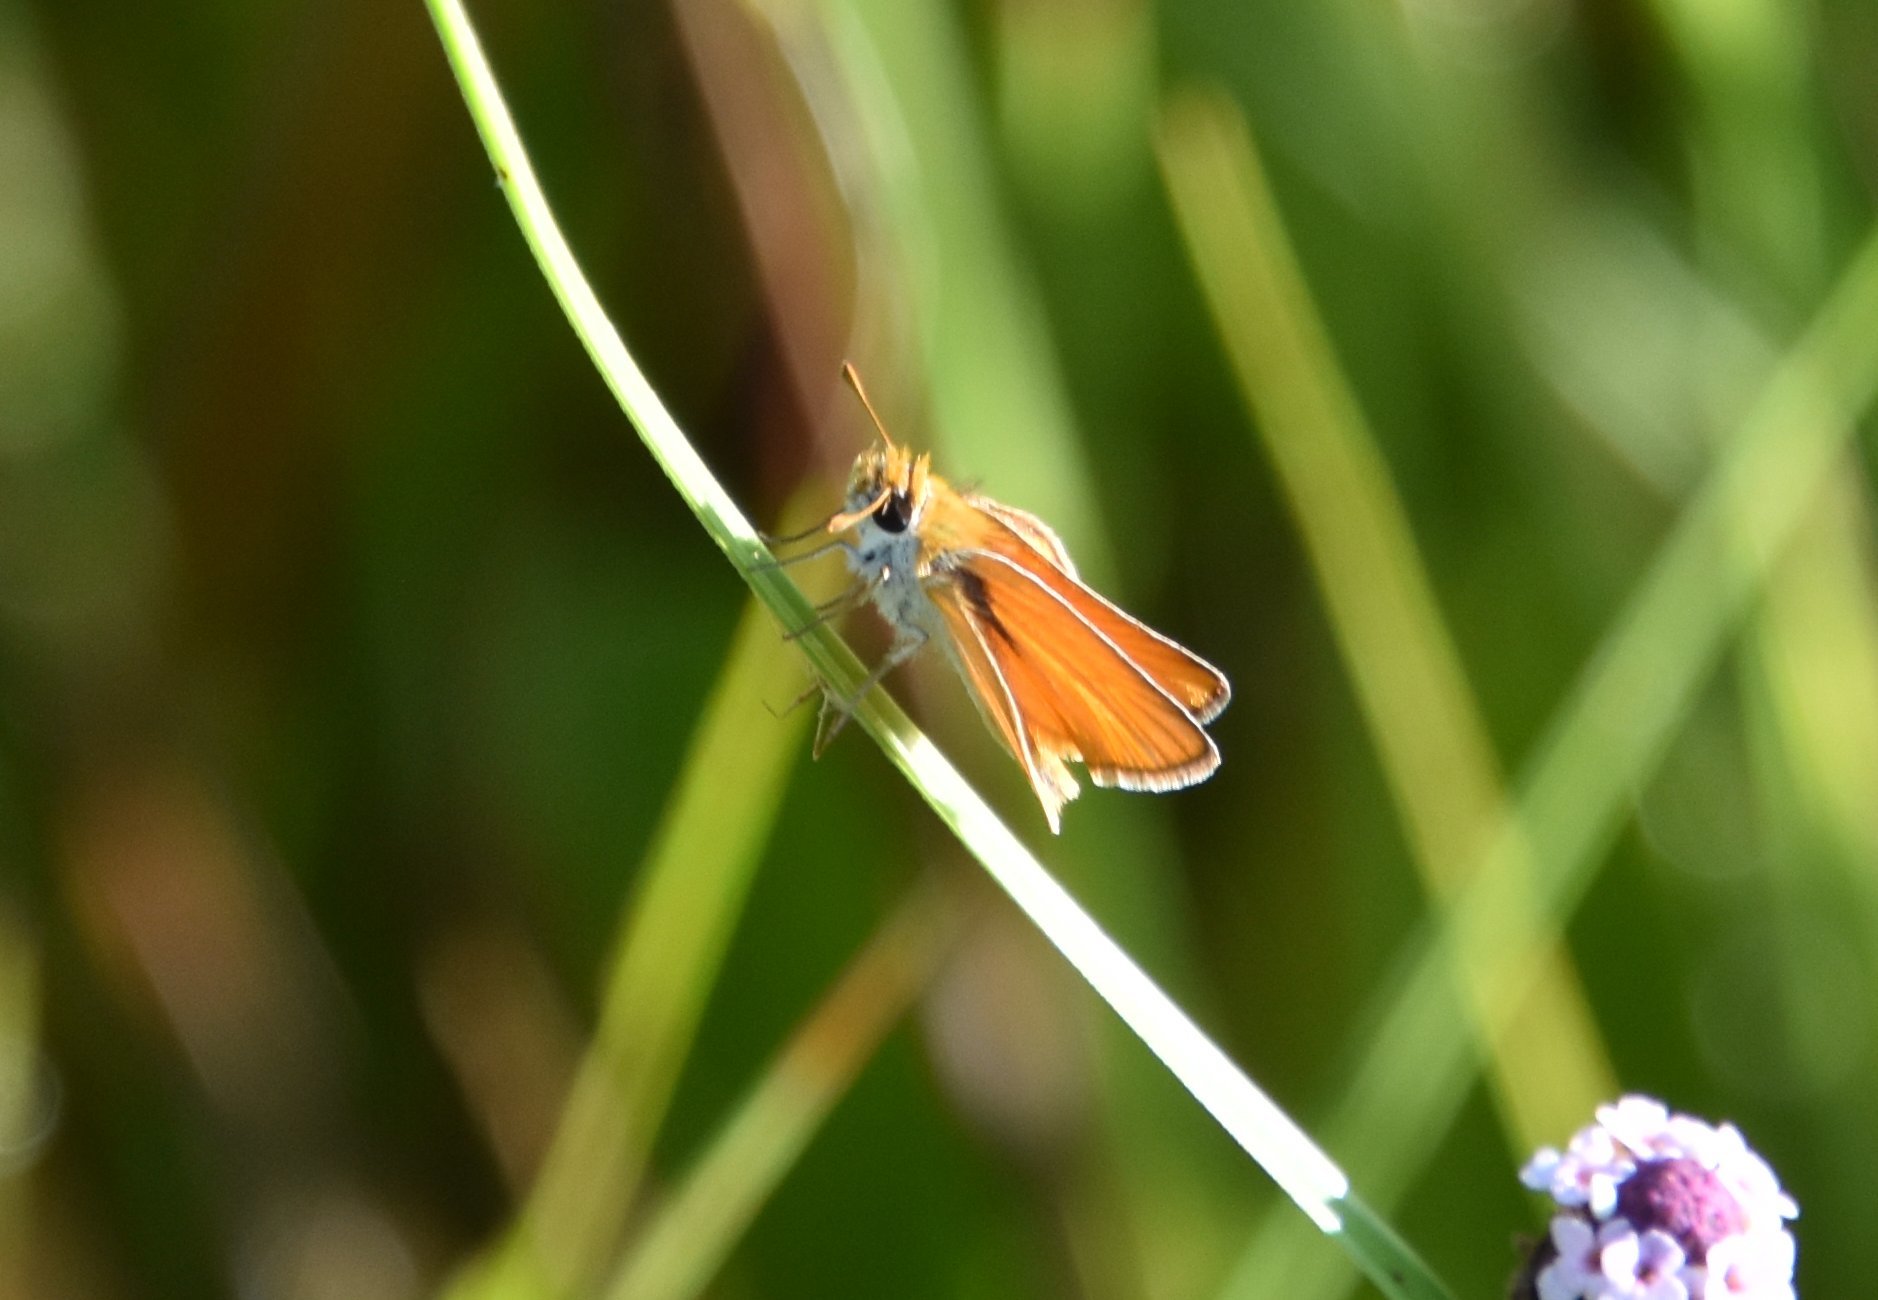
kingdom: Animalia
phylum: Arthropoda
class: Insecta
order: Lepidoptera
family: Hesperiidae
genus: Copaeodes
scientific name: Copaeodes minima
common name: Southern skipperling
